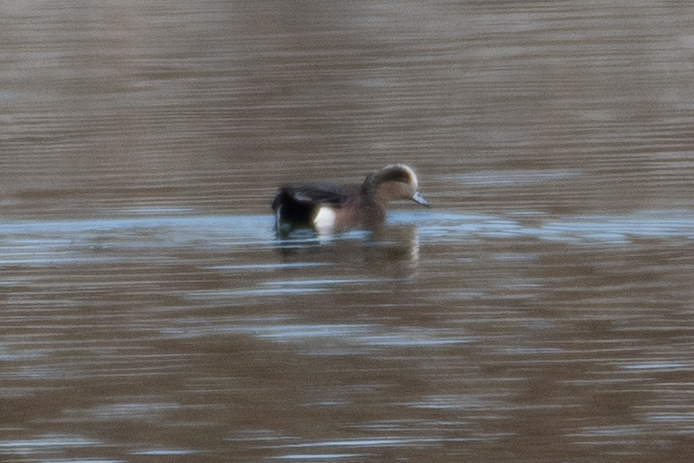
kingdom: Animalia
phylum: Chordata
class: Aves
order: Anseriformes
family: Anatidae
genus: Mareca
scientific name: Mareca americana
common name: American wigeon
